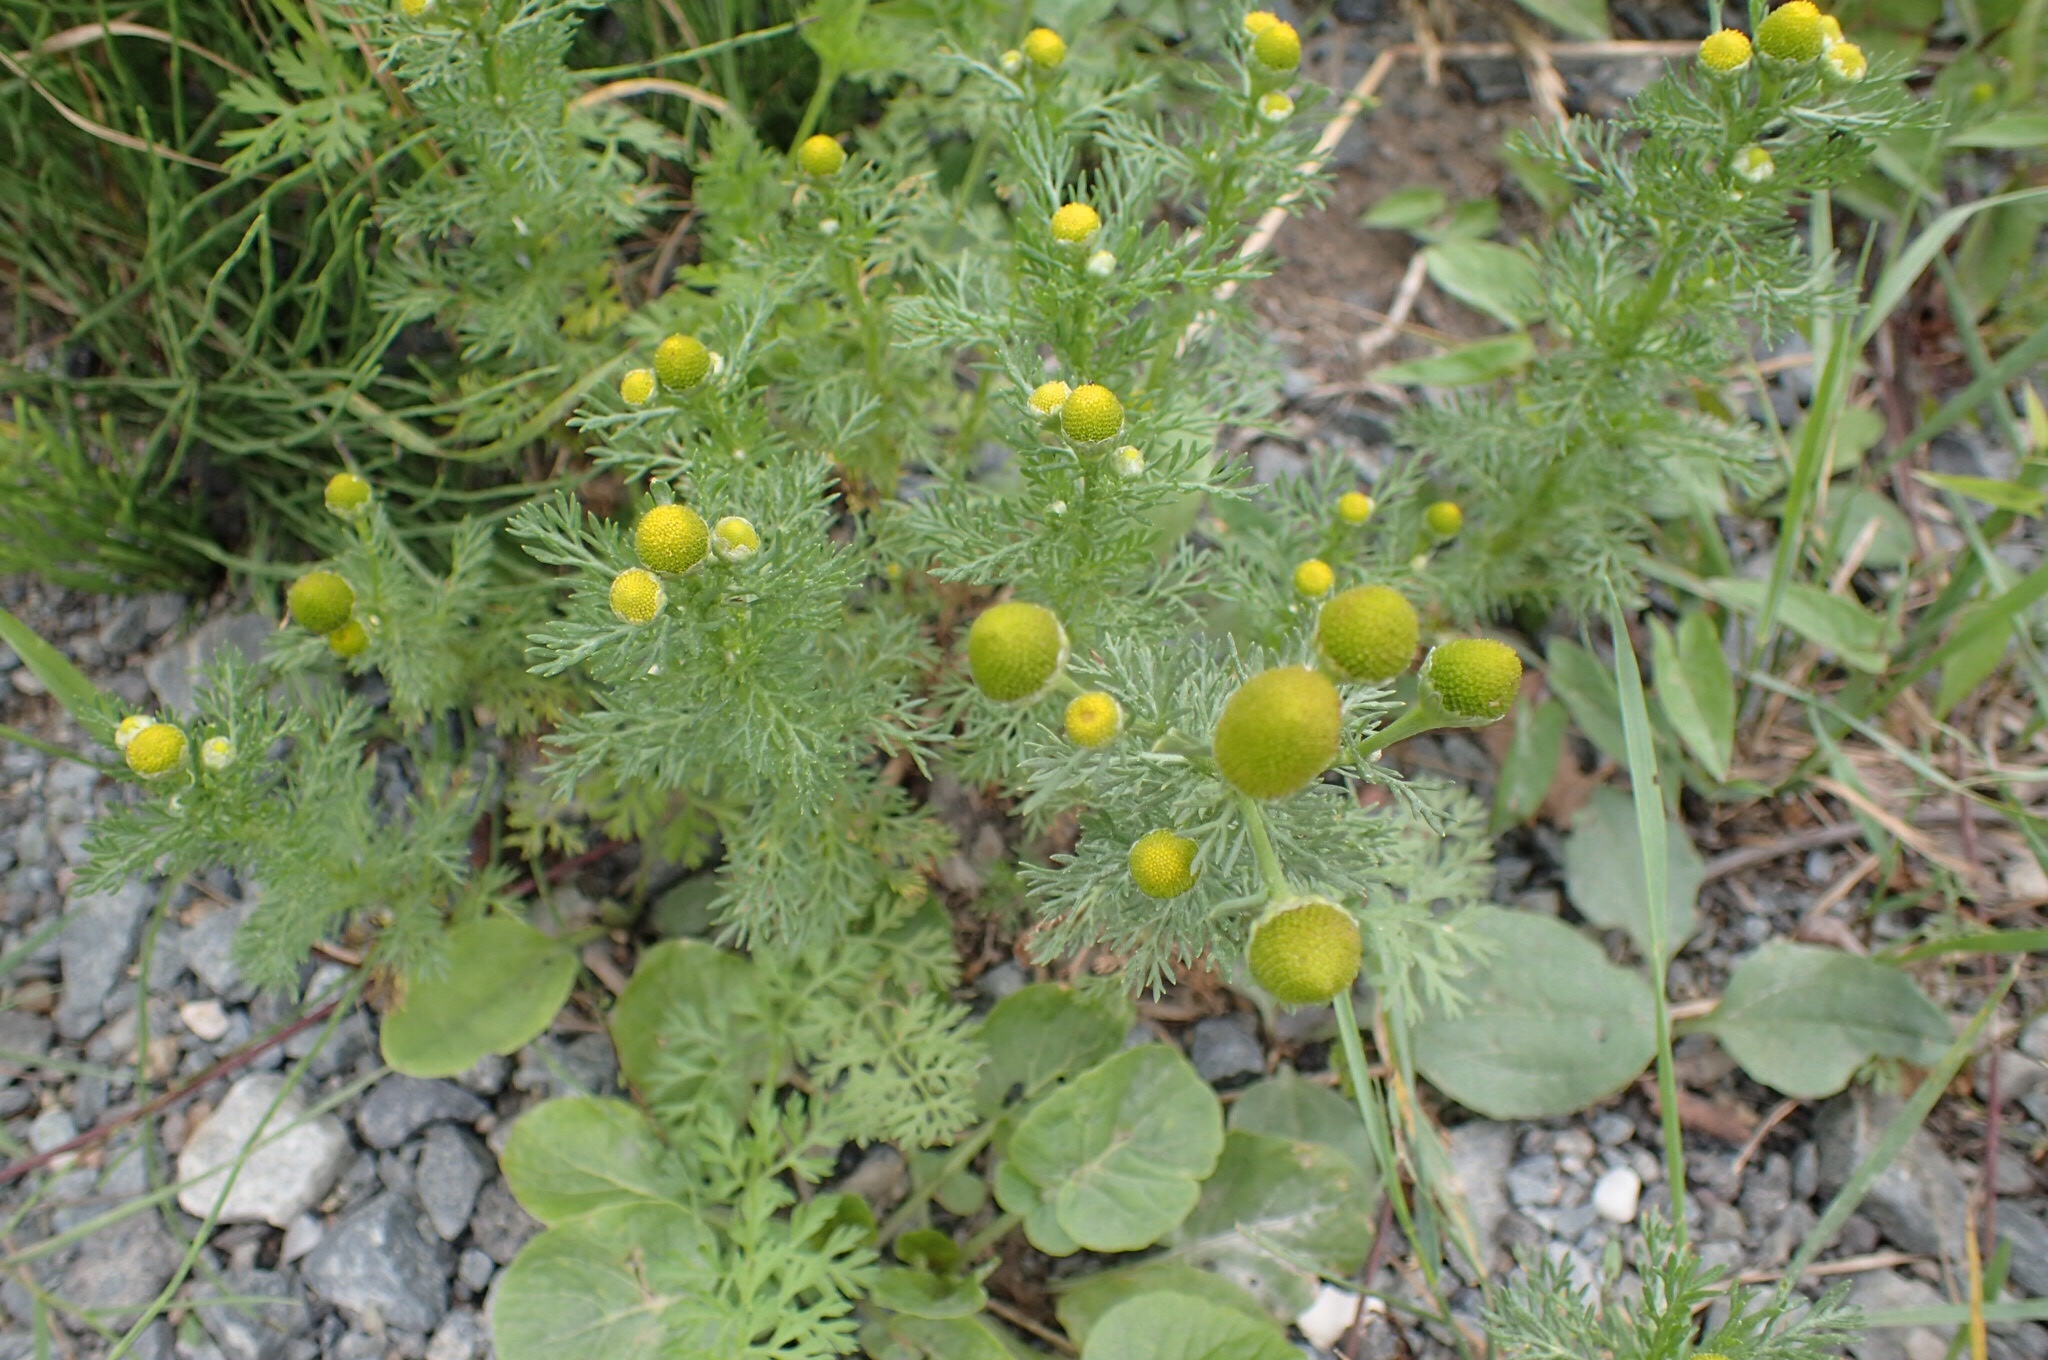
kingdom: Plantae
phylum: Tracheophyta
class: Magnoliopsida
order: Asterales
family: Asteraceae
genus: Matricaria
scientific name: Matricaria discoidea
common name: Disc mayweed
